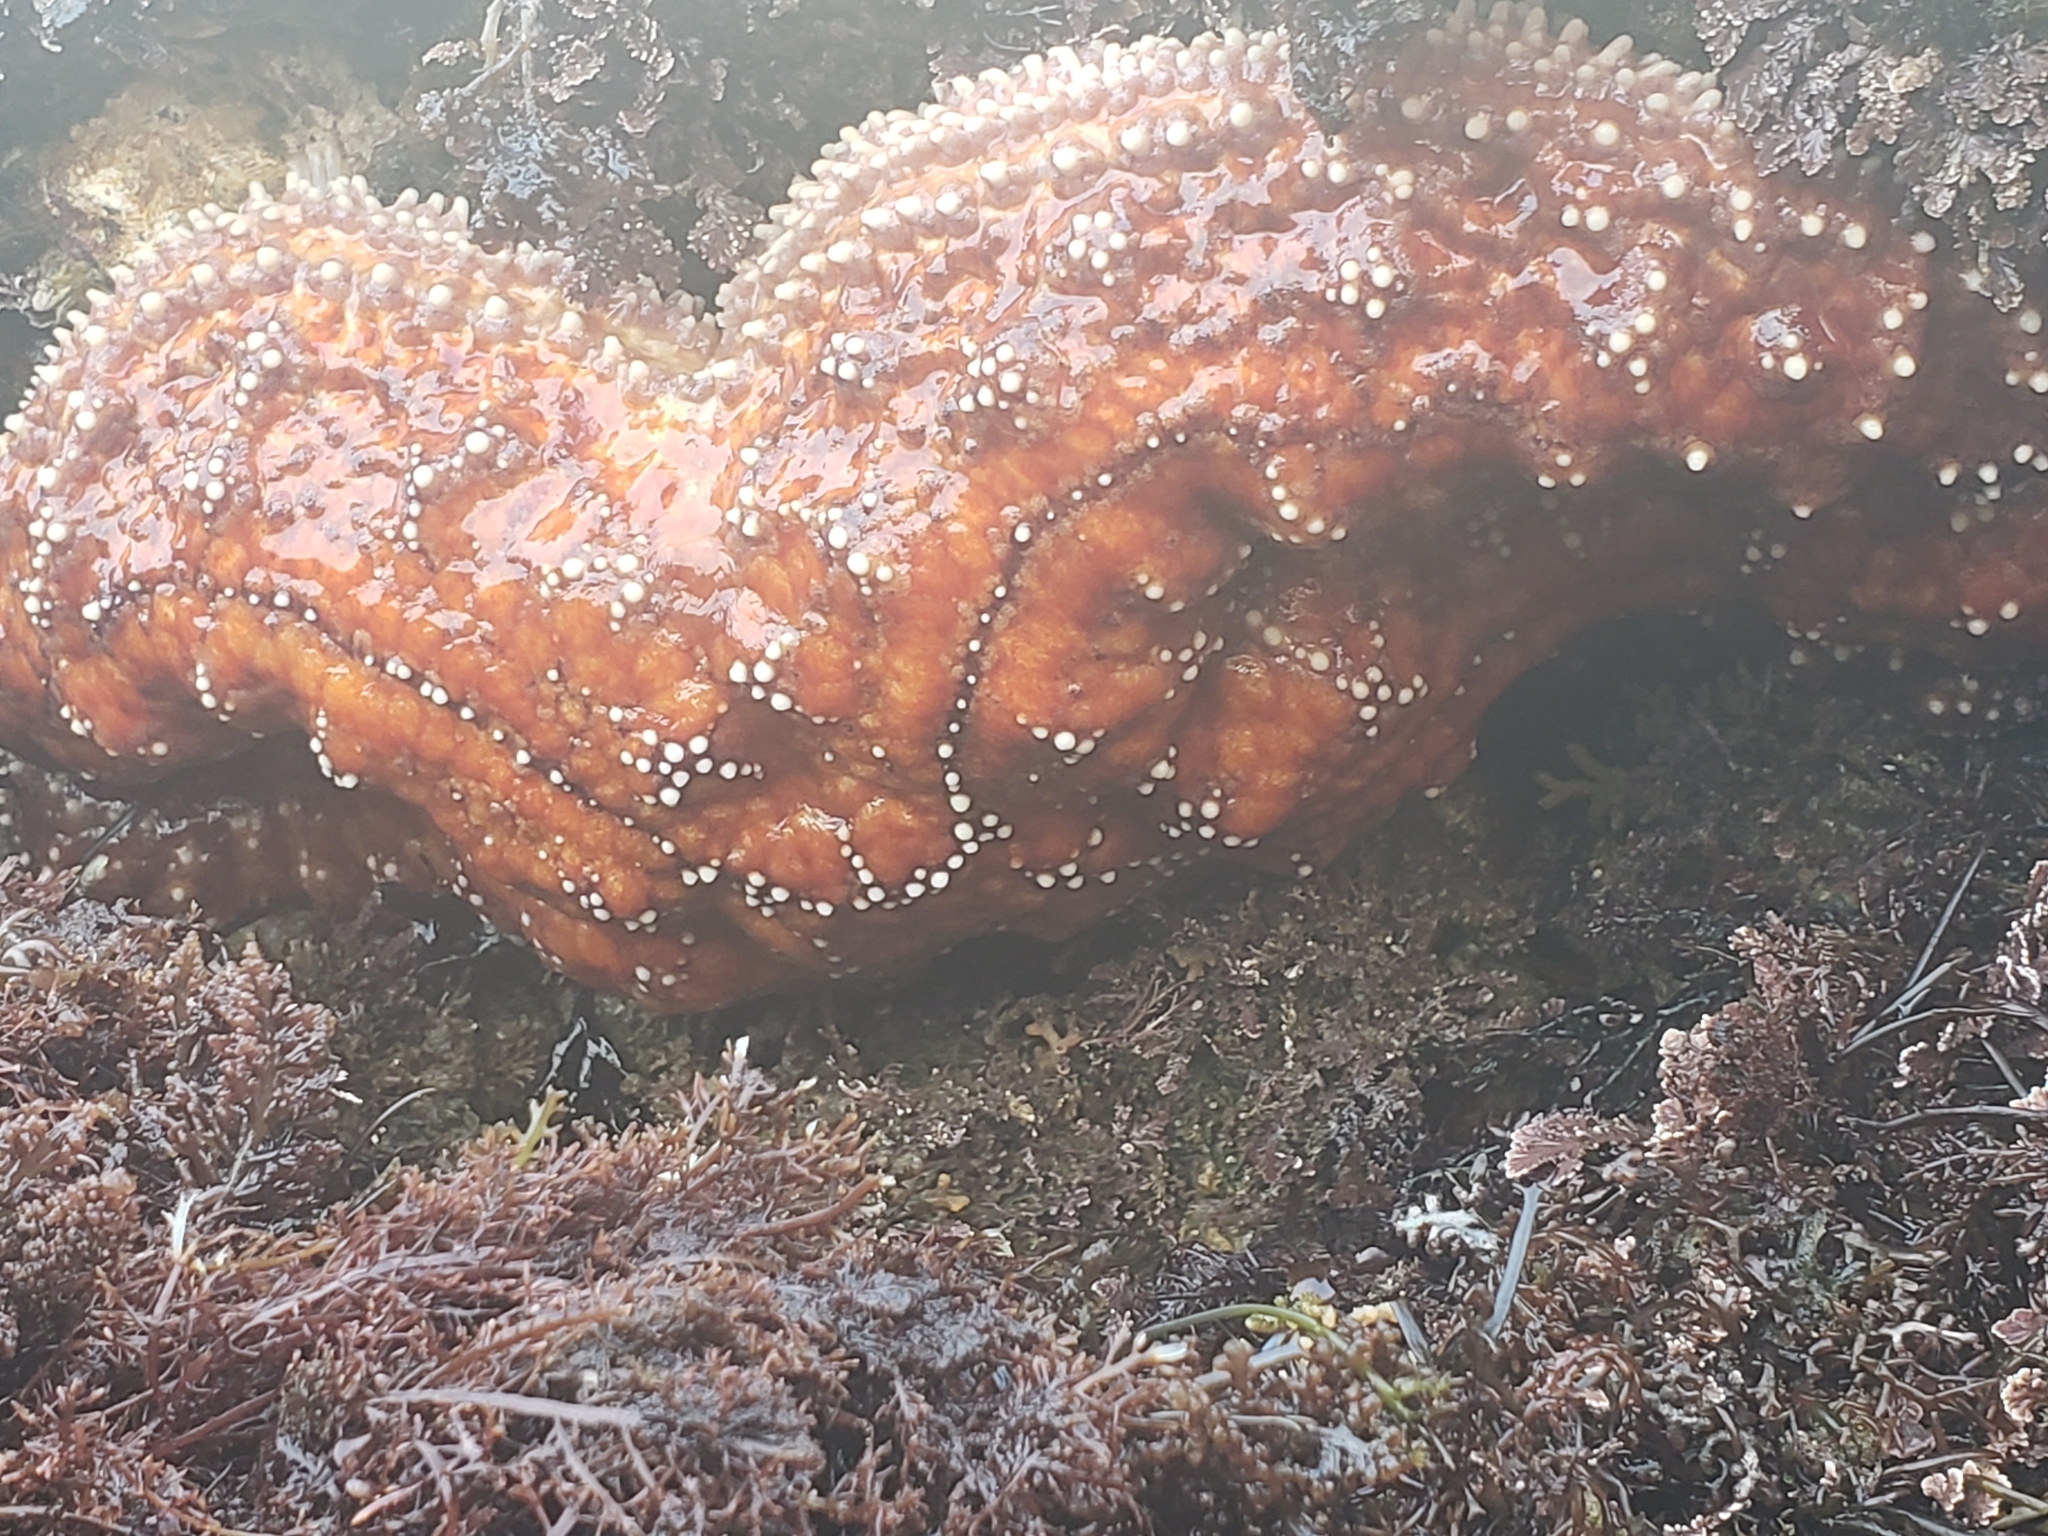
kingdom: Animalia
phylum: Echinodermata
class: Asteroidea
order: Forcipulatida
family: Asteriidae
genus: Pisaster
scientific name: Pisaster ochraceus
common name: Ochre stars
